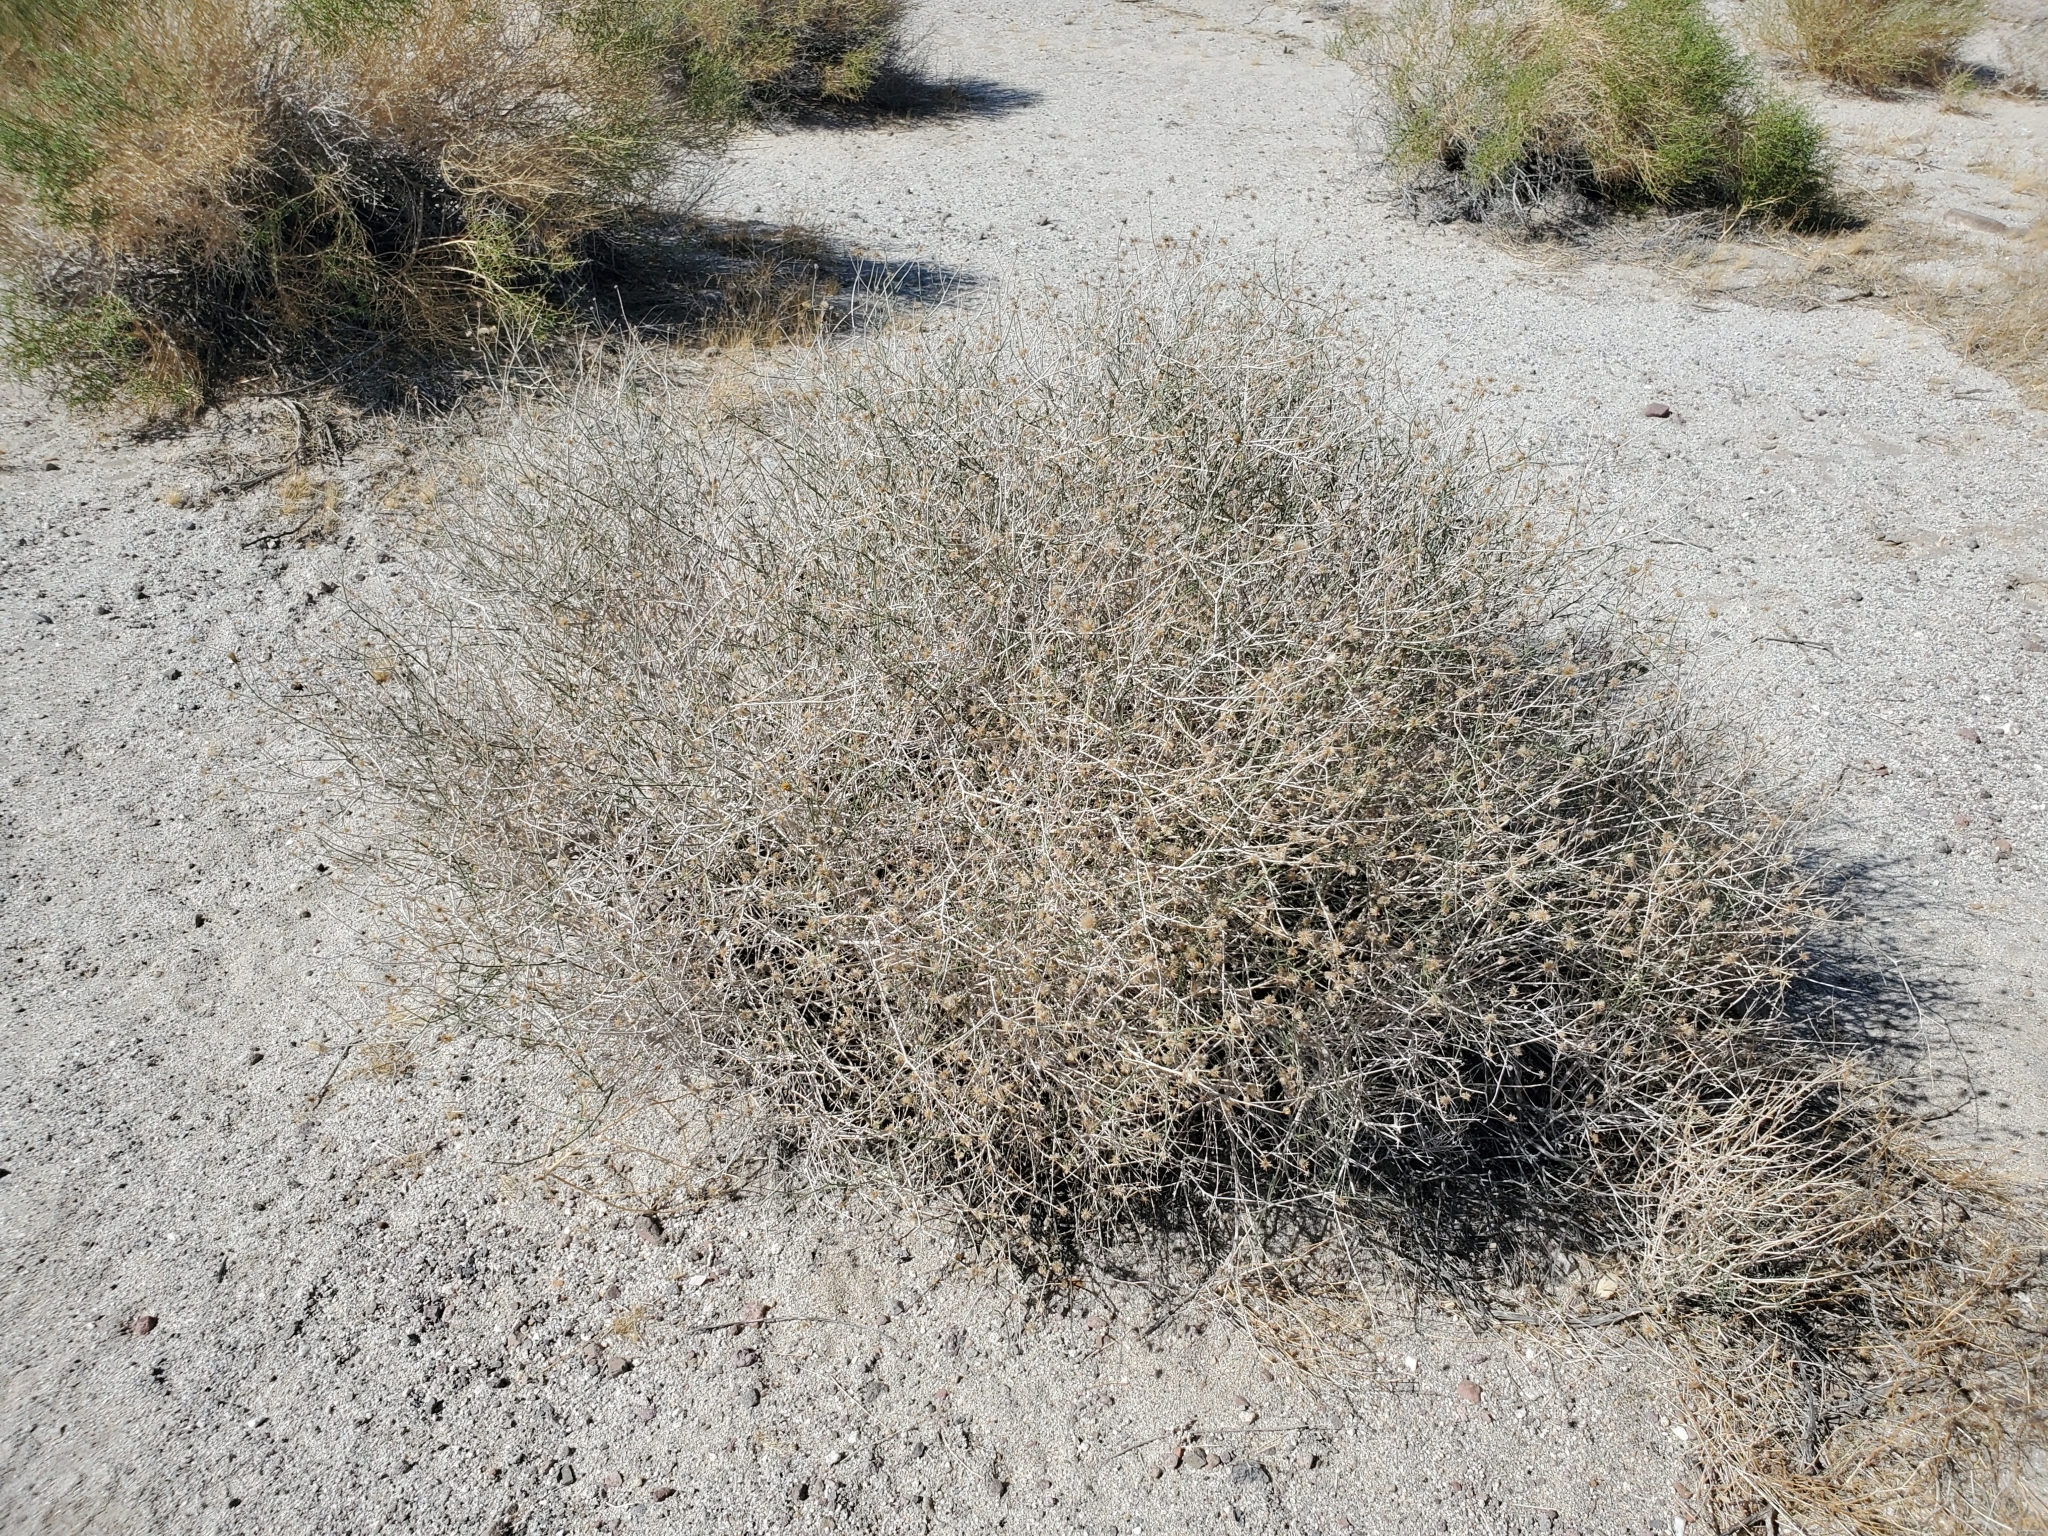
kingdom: Plantae
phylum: Tracheophyta
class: Magnoliopsida
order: Asterales
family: Asteraceae
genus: Bebbia
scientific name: Bebbia juncea
